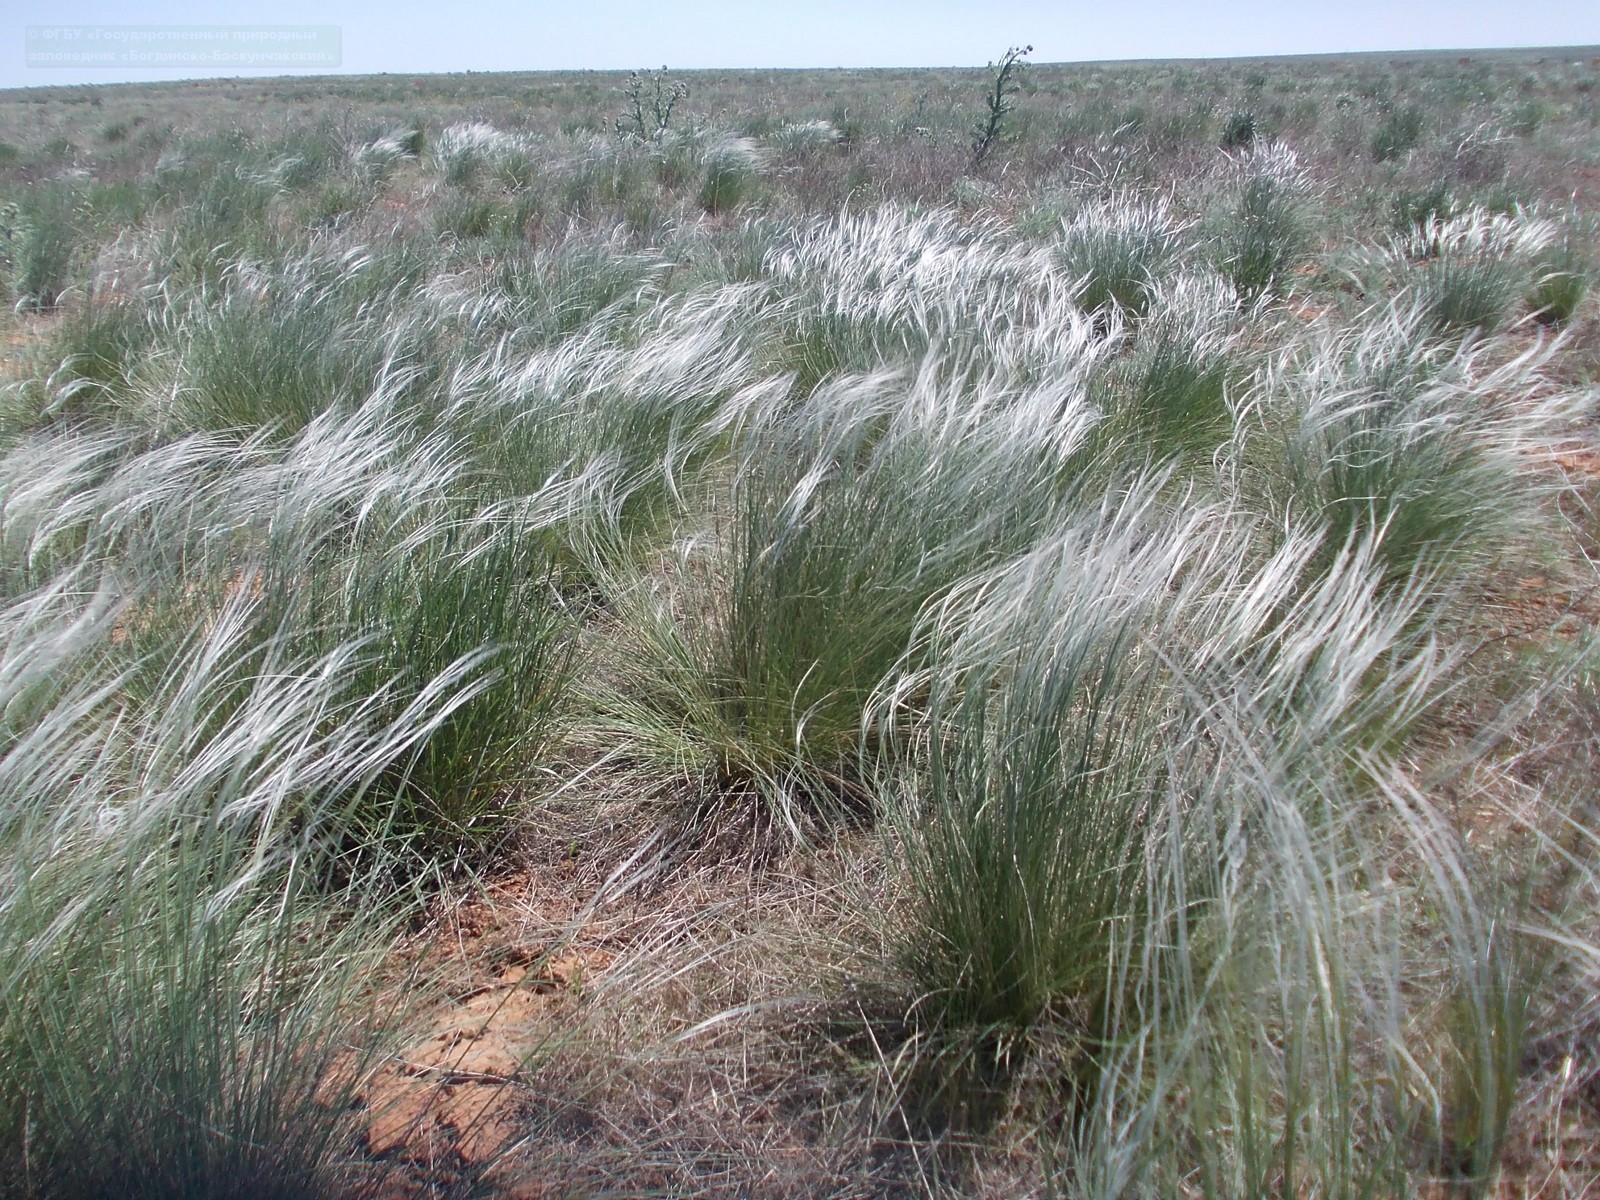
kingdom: Plantae
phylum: Tracheophyta
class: Liliopsida
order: Poales
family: Poaceae
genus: Stipa
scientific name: Stipa lessingiana
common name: Needle grass
